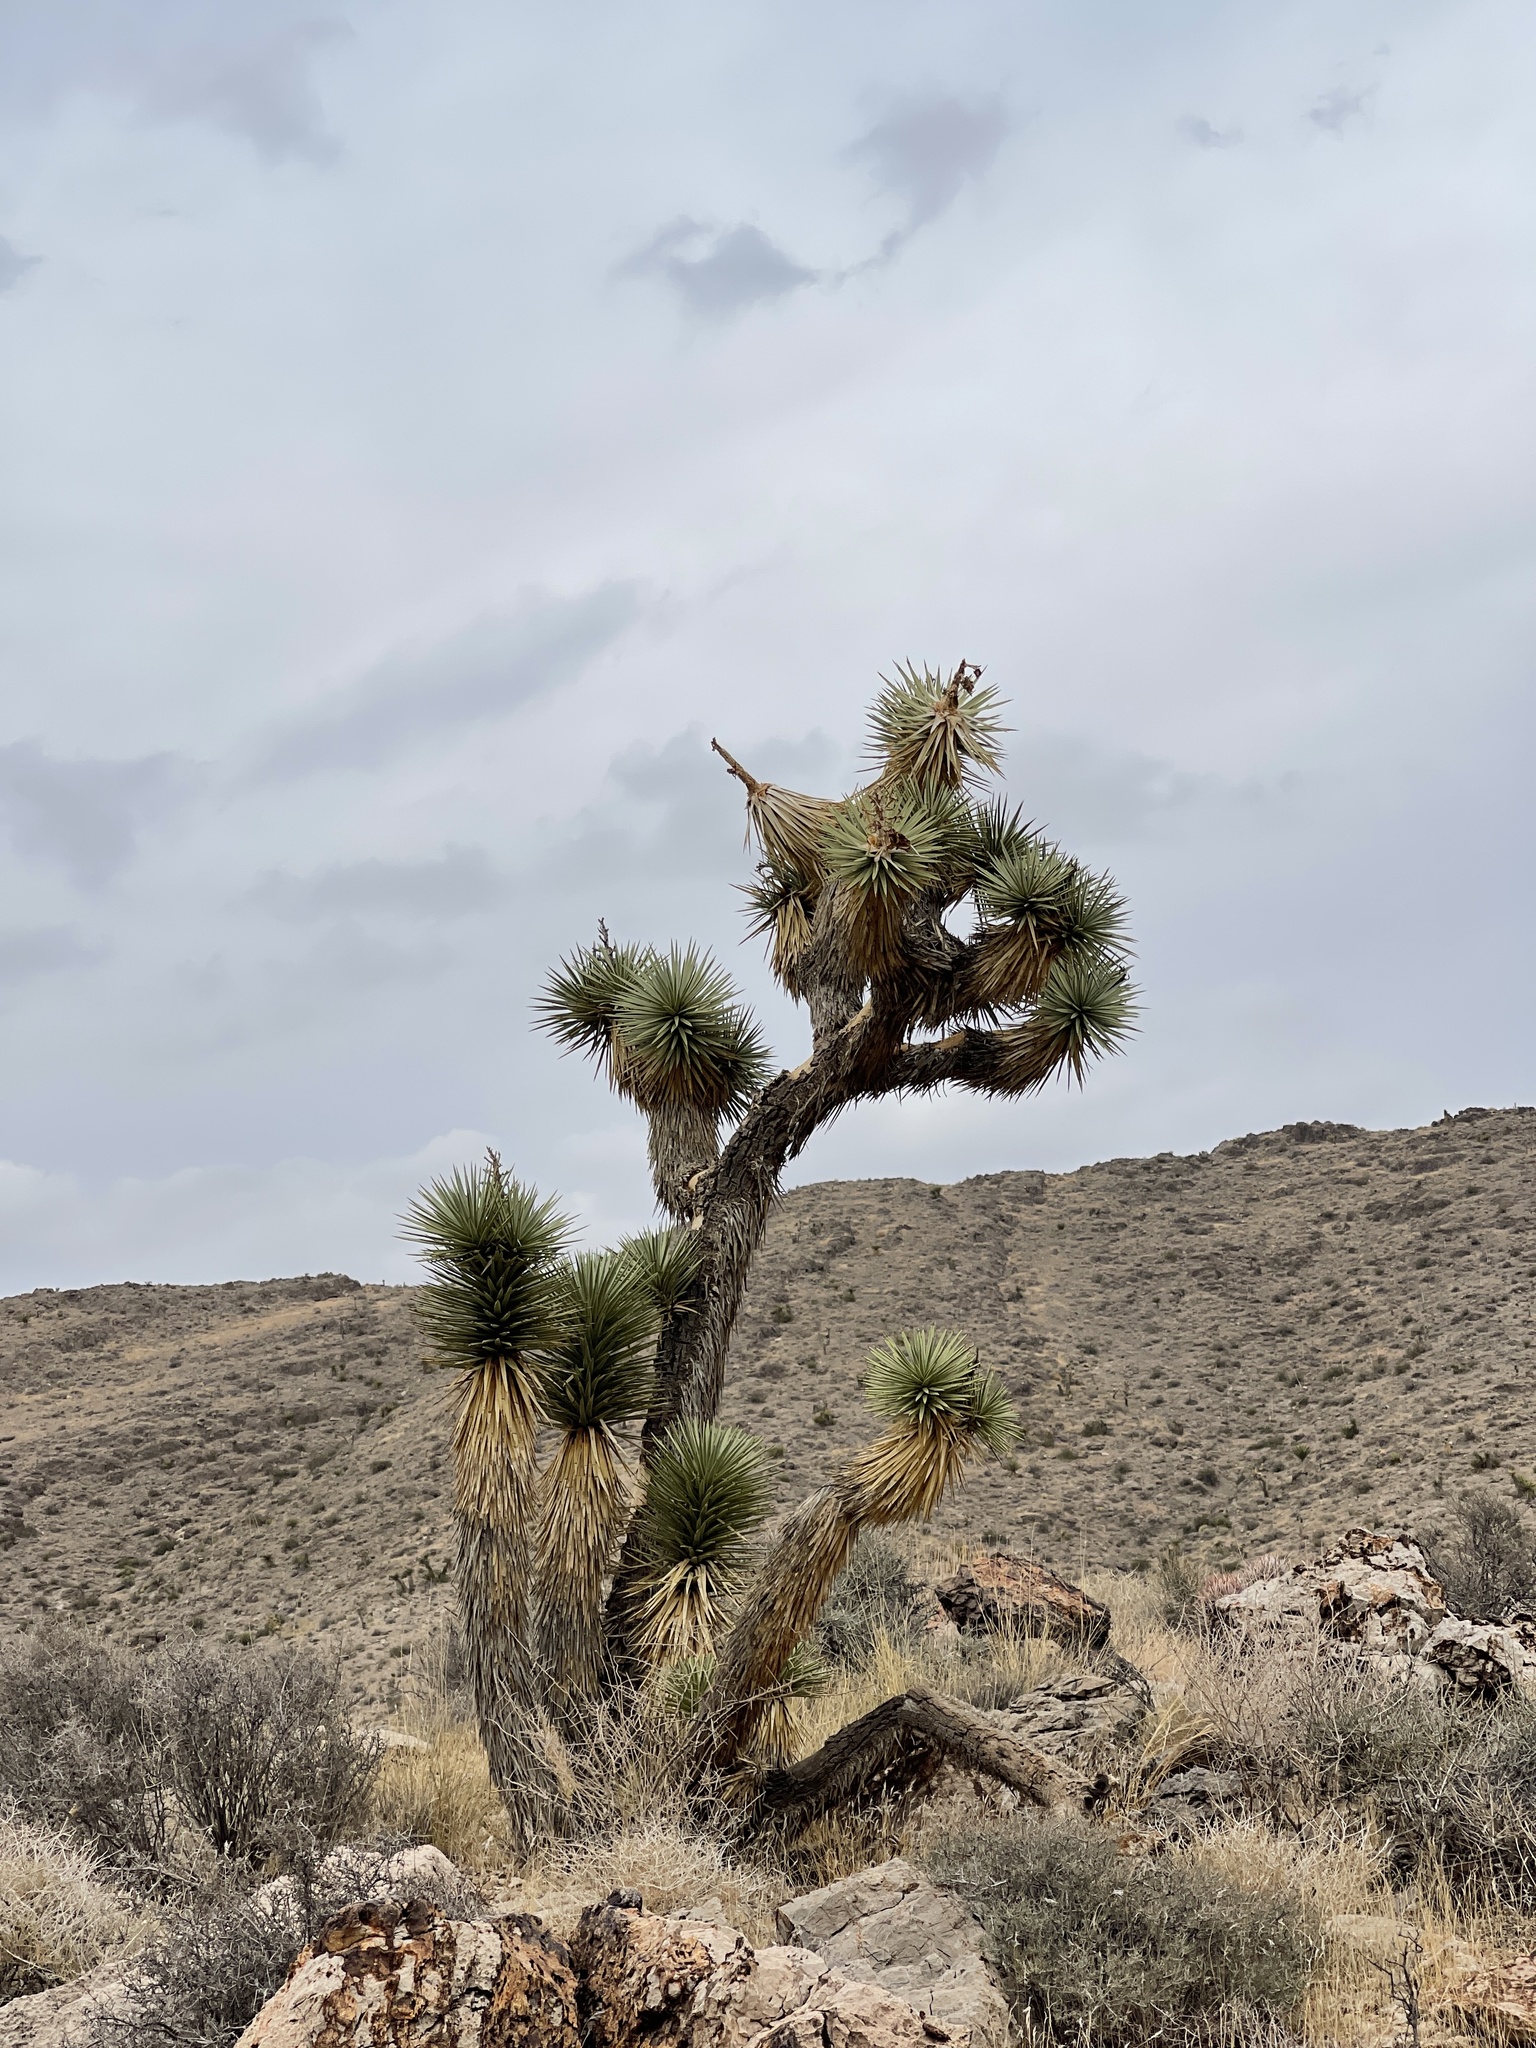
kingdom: Plantae
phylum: Tracheophyta
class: Liliopsida
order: Asparagales
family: Asparagaceae
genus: Yucca
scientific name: Yucca brevifolia
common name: Joshua tree
